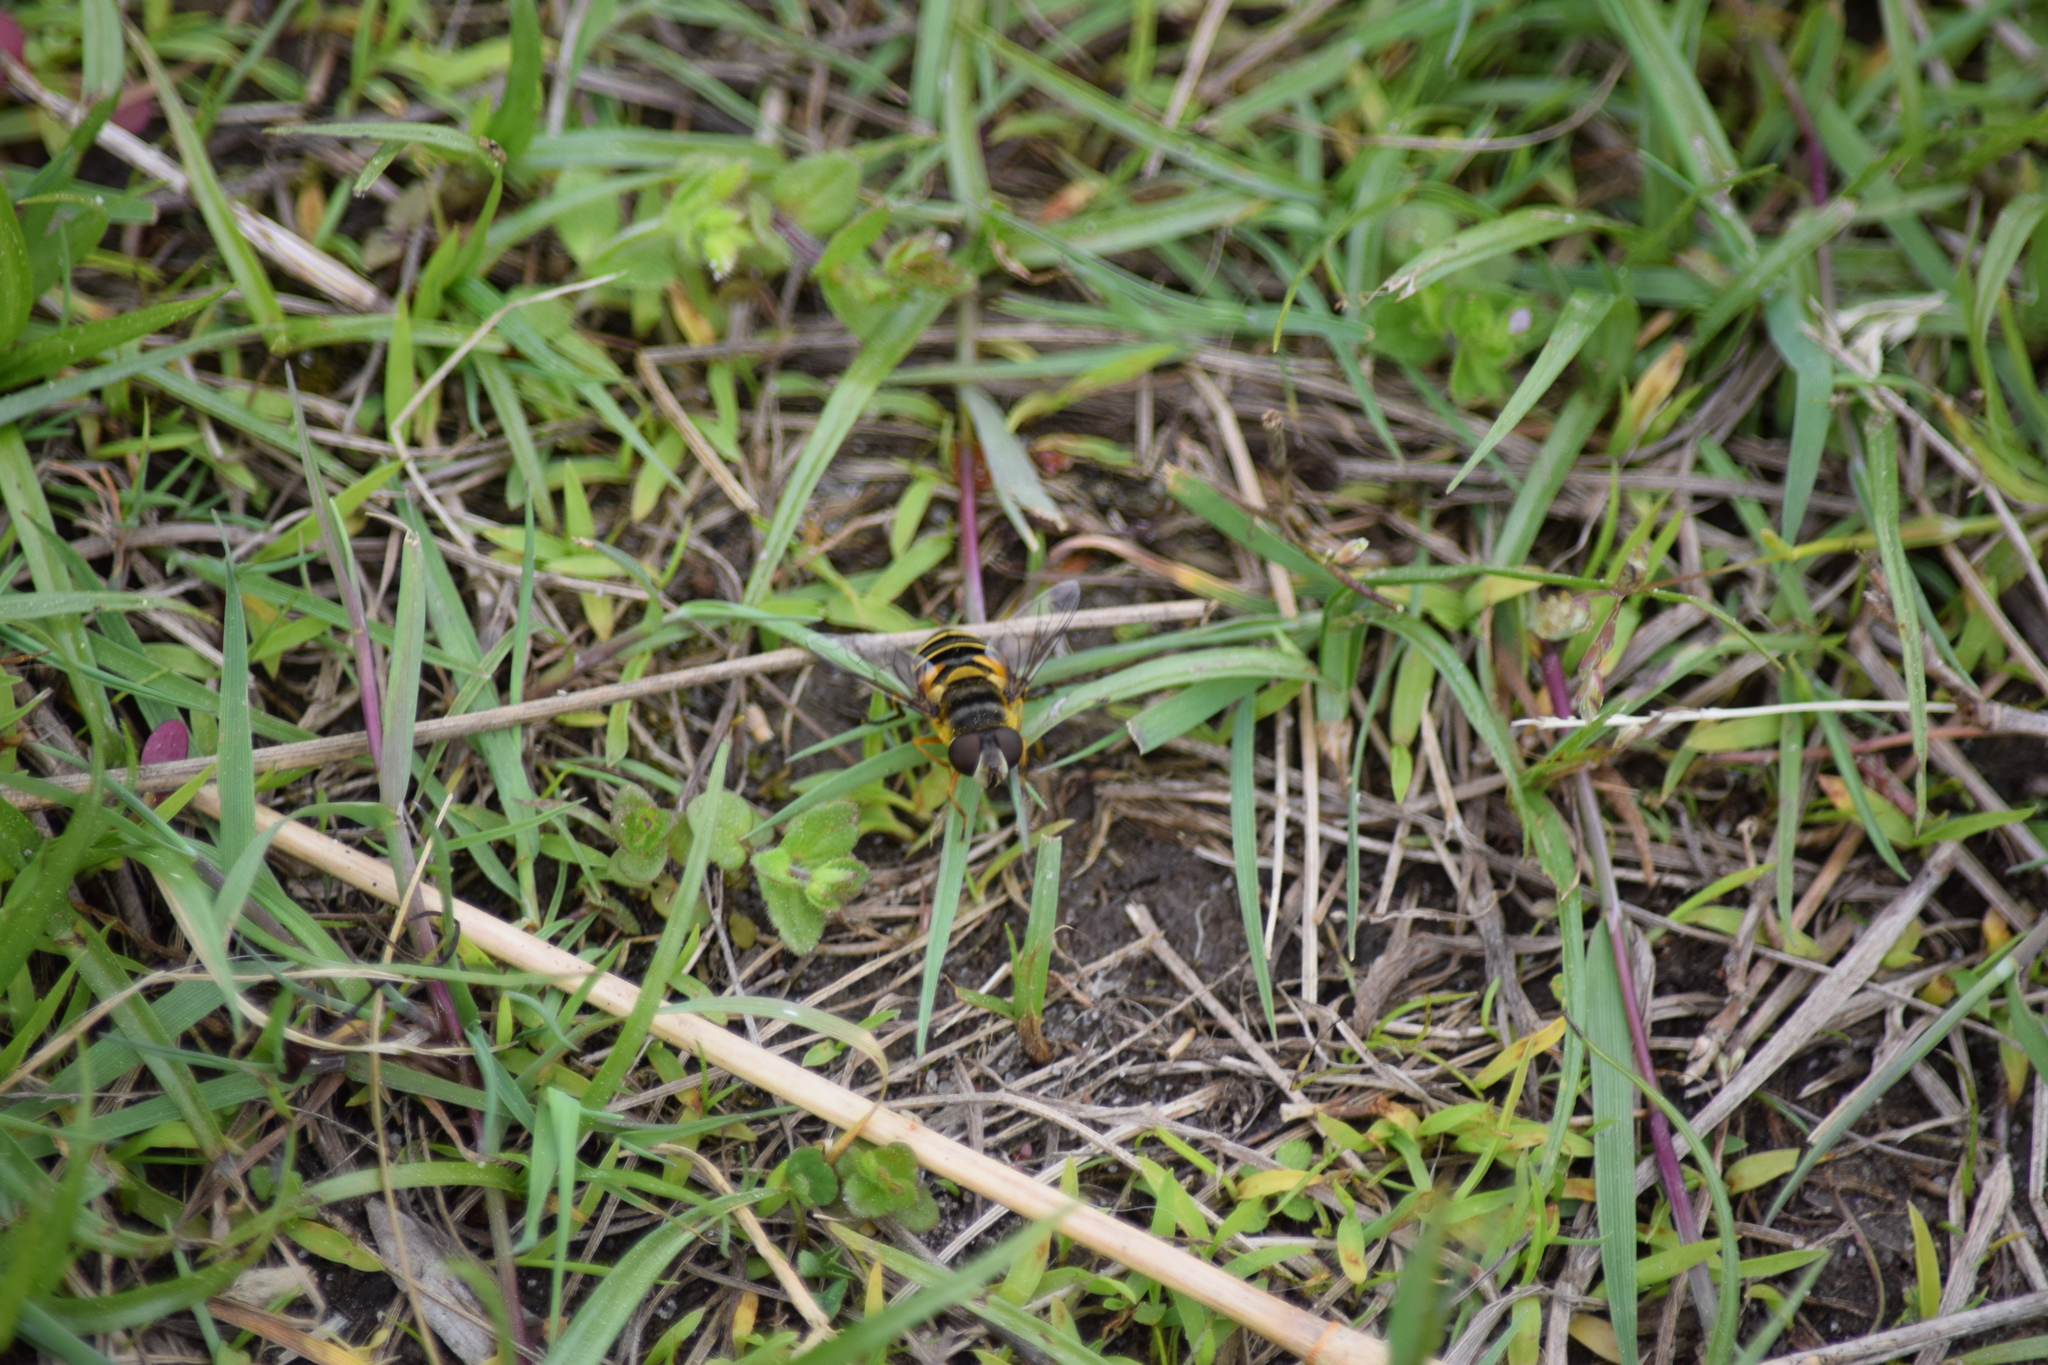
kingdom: Animalia
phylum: Arthropoda
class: Insecta
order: Diptera
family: Syrphidae
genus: Eristalis
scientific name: Eristalis transversa
